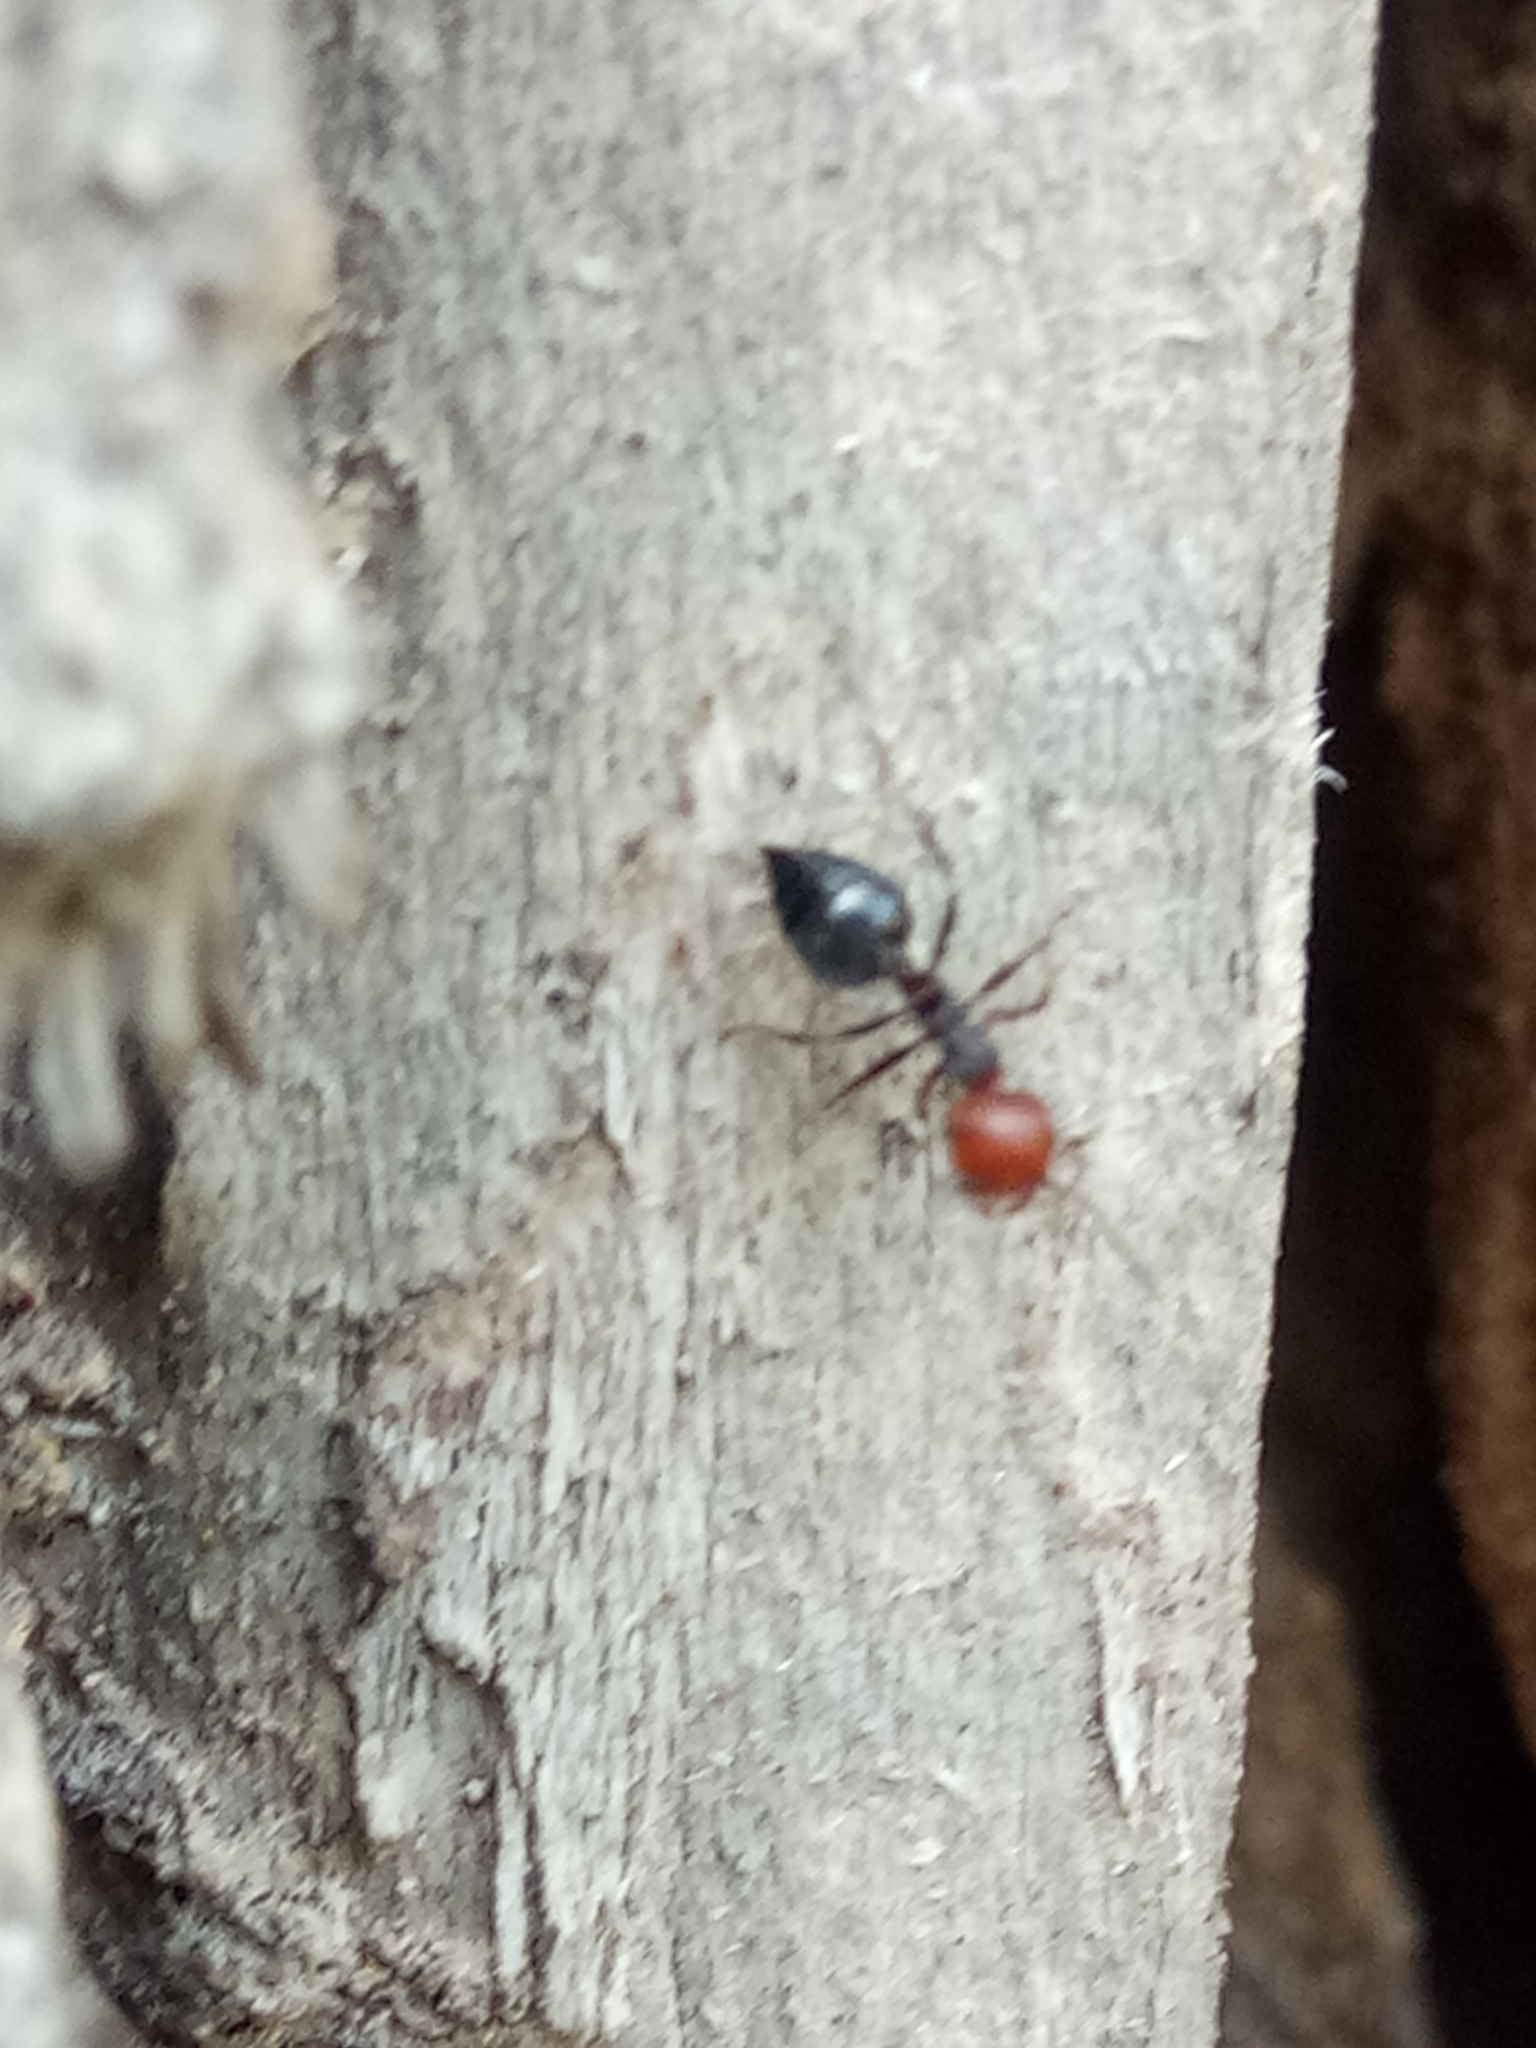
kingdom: Animalia
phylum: Arthropoda
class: Insecta
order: Hymenoptera
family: Formicidae
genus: Crematogaster
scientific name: Crematogaster scutellaris
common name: Fourmi du liège
